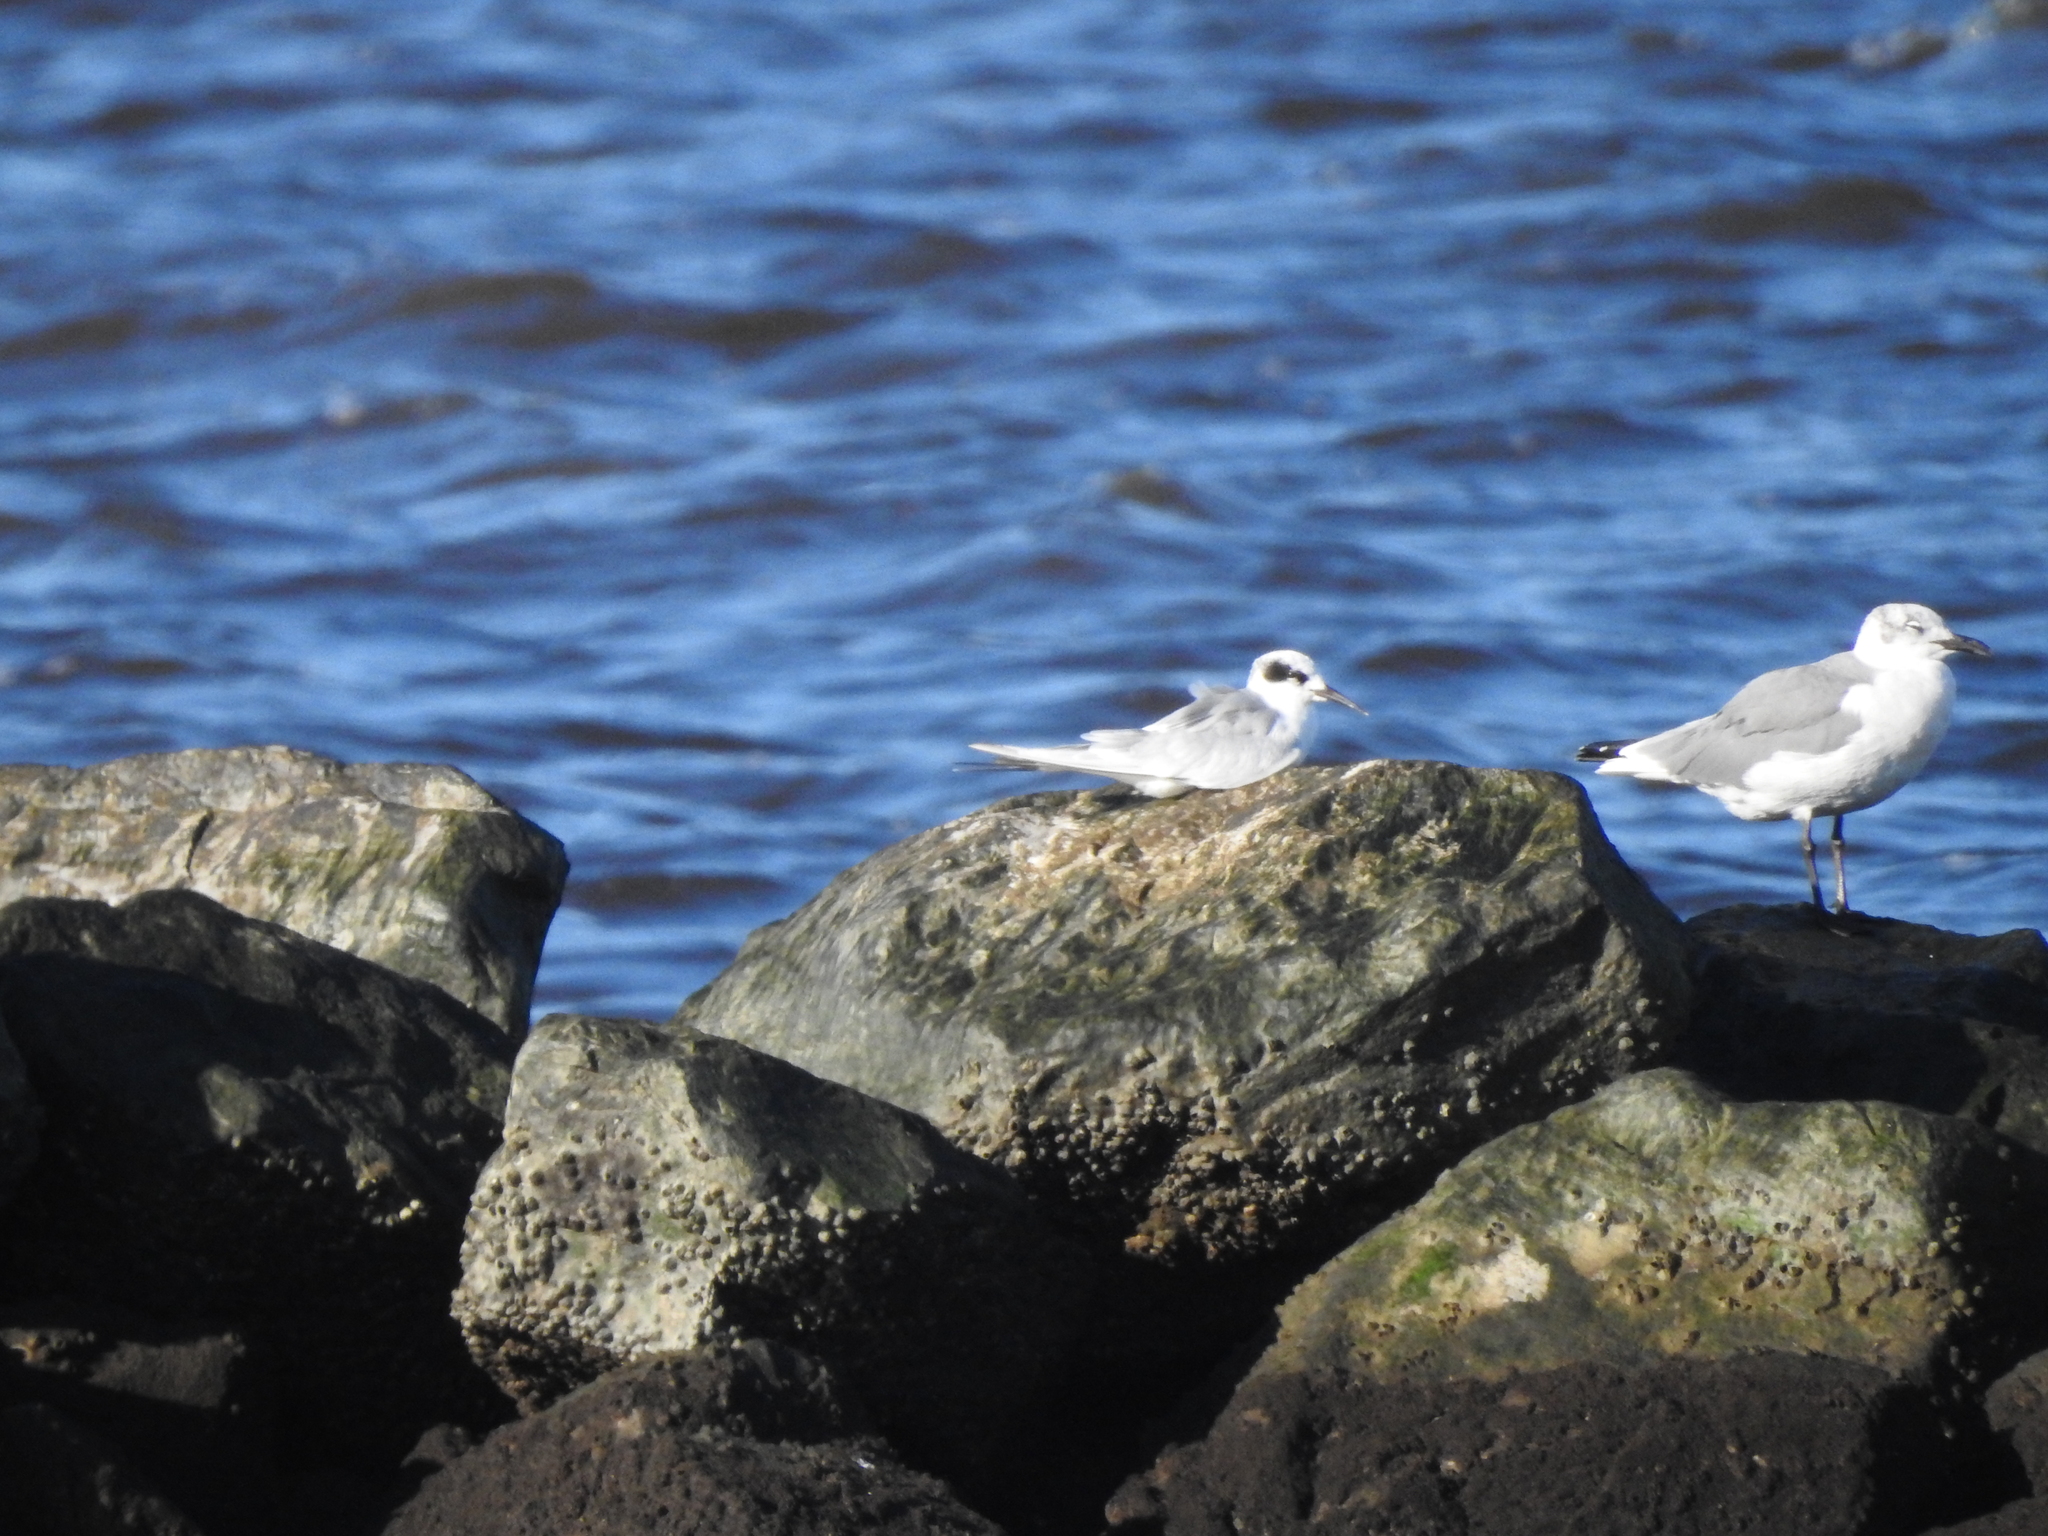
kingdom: Animalia
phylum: Chordata
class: Aves
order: Charadriiformes
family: Laridae
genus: Sterna
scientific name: Sterna forsteri
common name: Forster's tern
